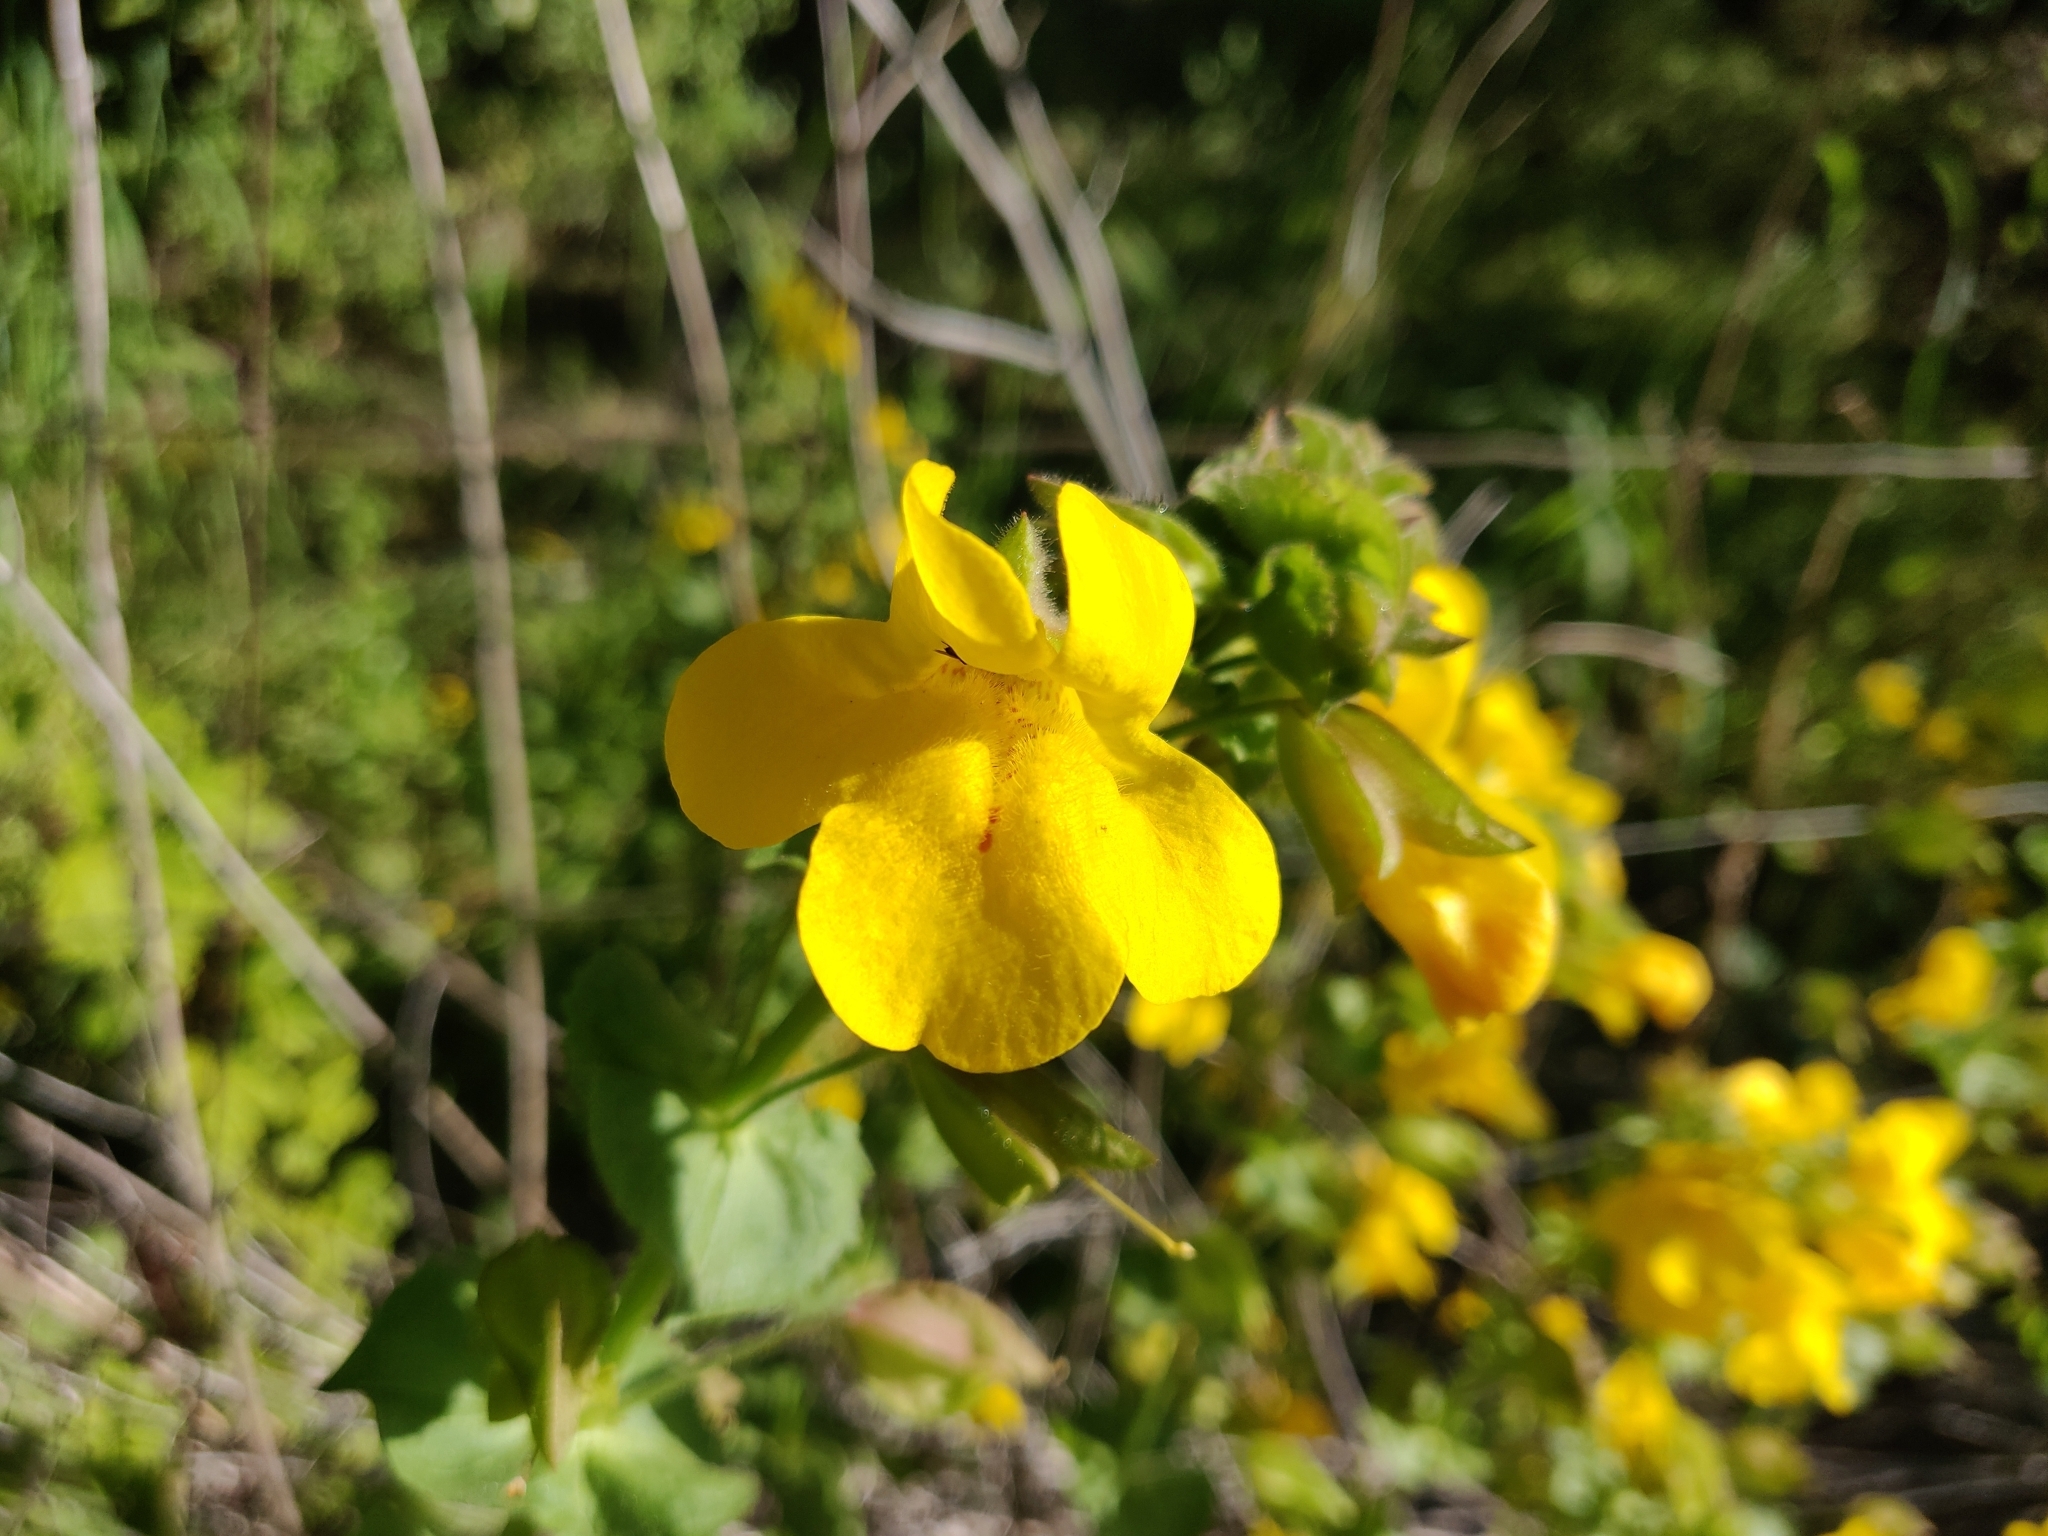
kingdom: Plantae
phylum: Tracheophyta
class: Magnoliopsida
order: Lamiales
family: Phrymaceae
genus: Erythranthe
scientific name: Erythranthe guttata
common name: Monkeyflower
